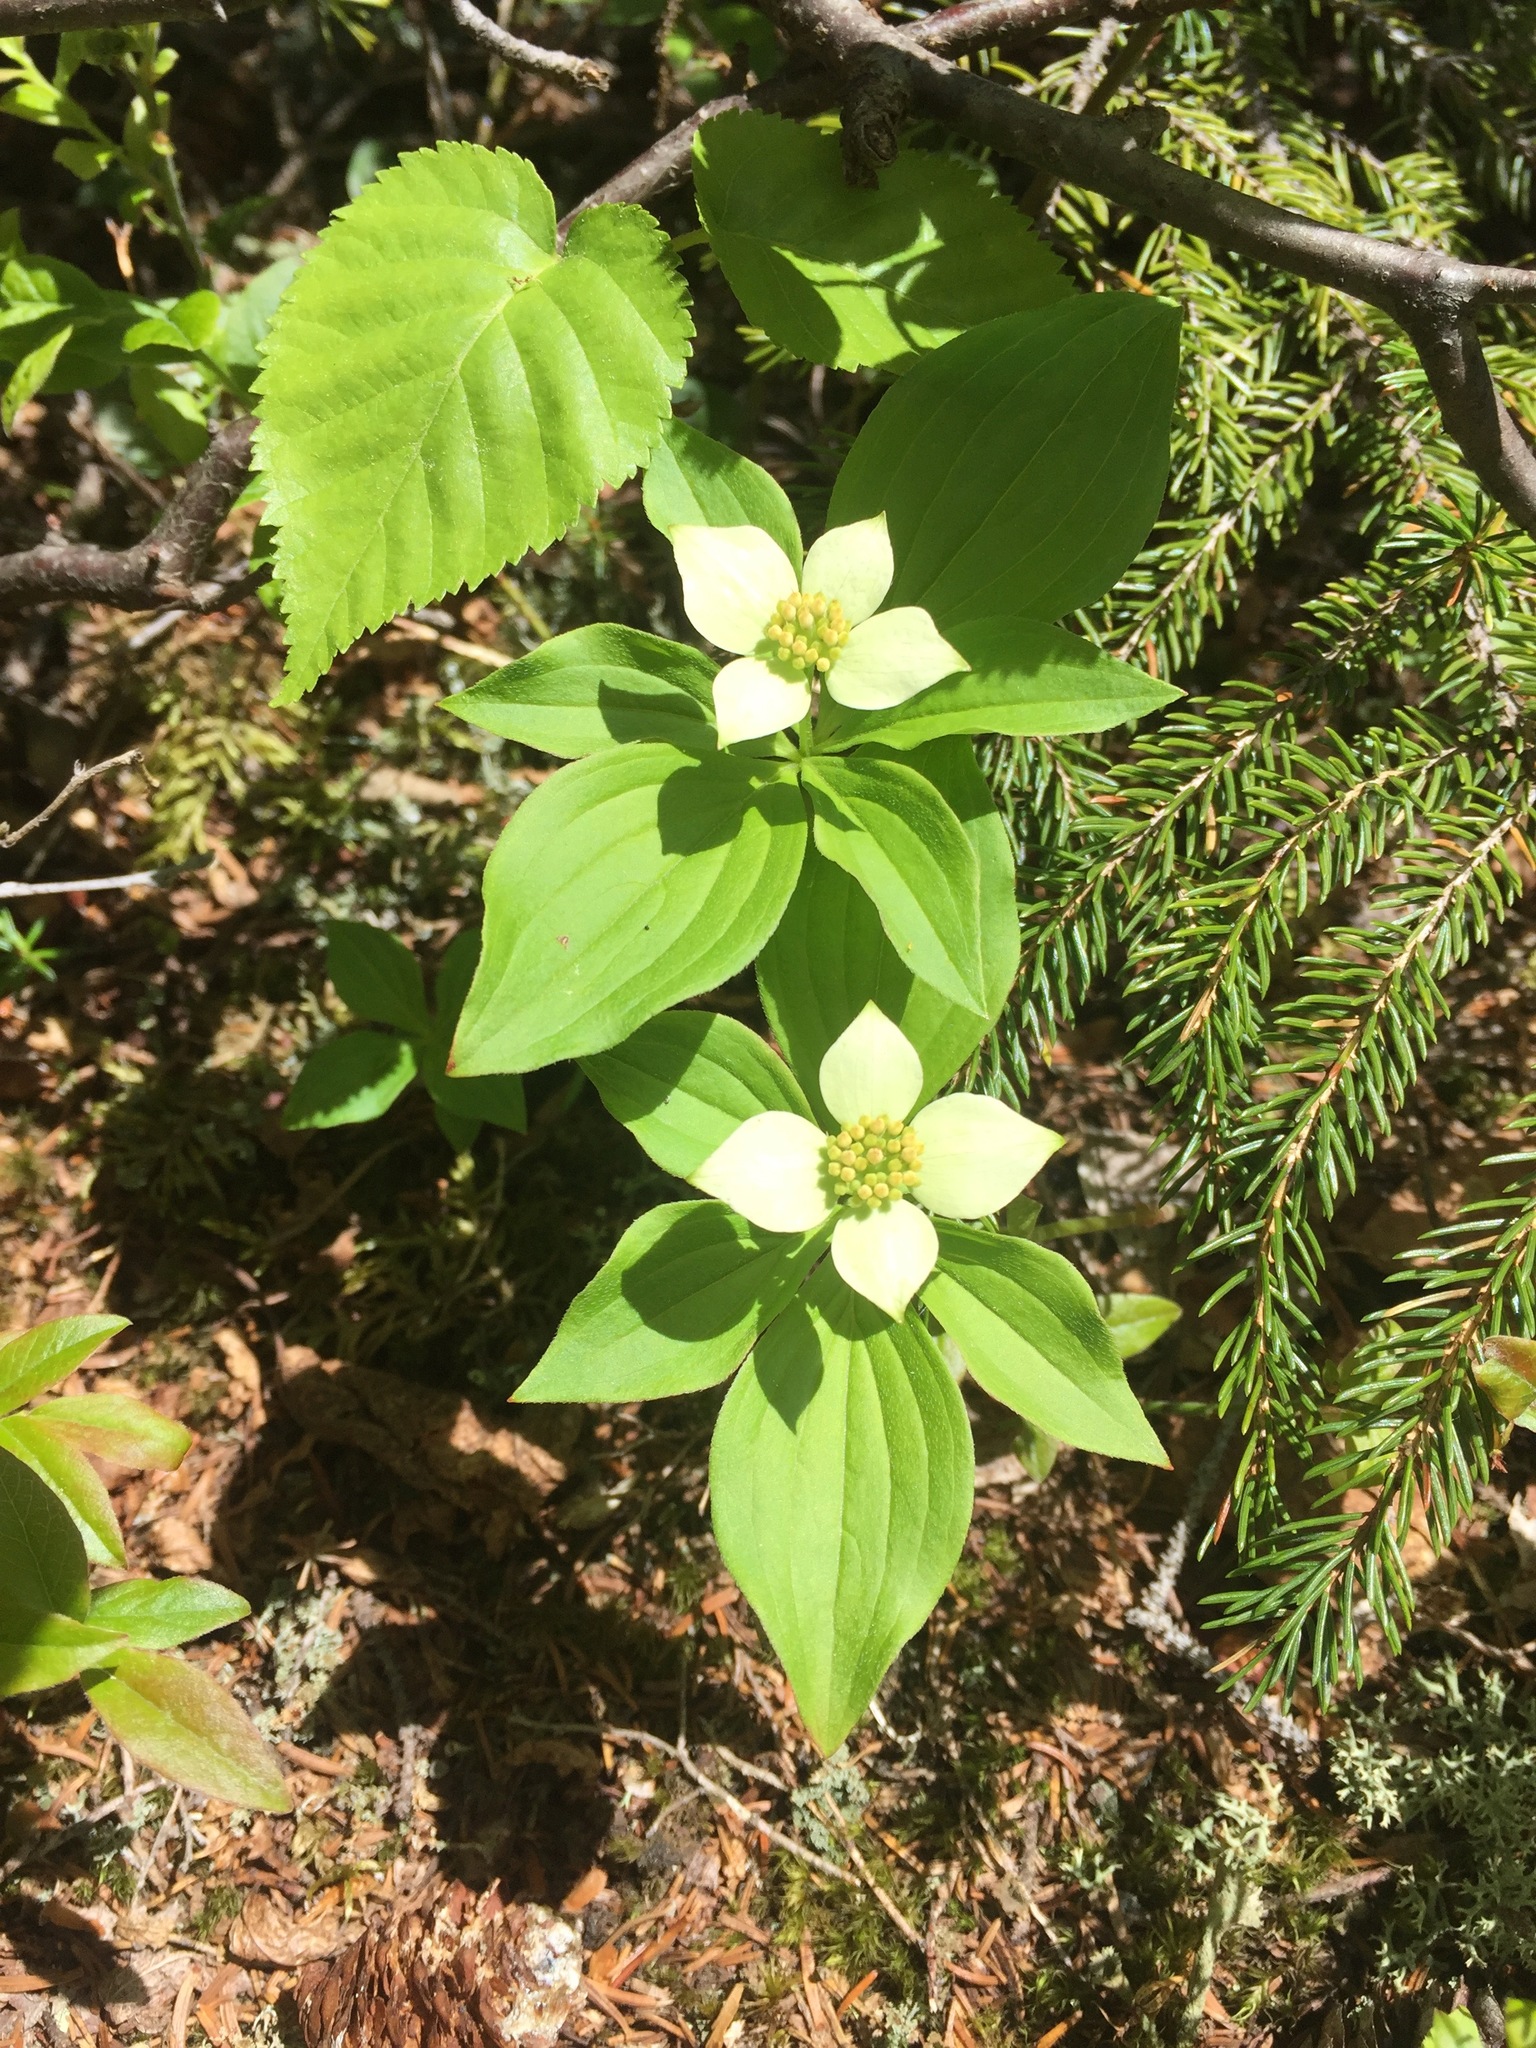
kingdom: Plantae
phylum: Tracheophyta
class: Magnoliopsida
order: Cornales
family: Cornaceae
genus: Cornus
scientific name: Cornus canadensis
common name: Creeping dogwood
